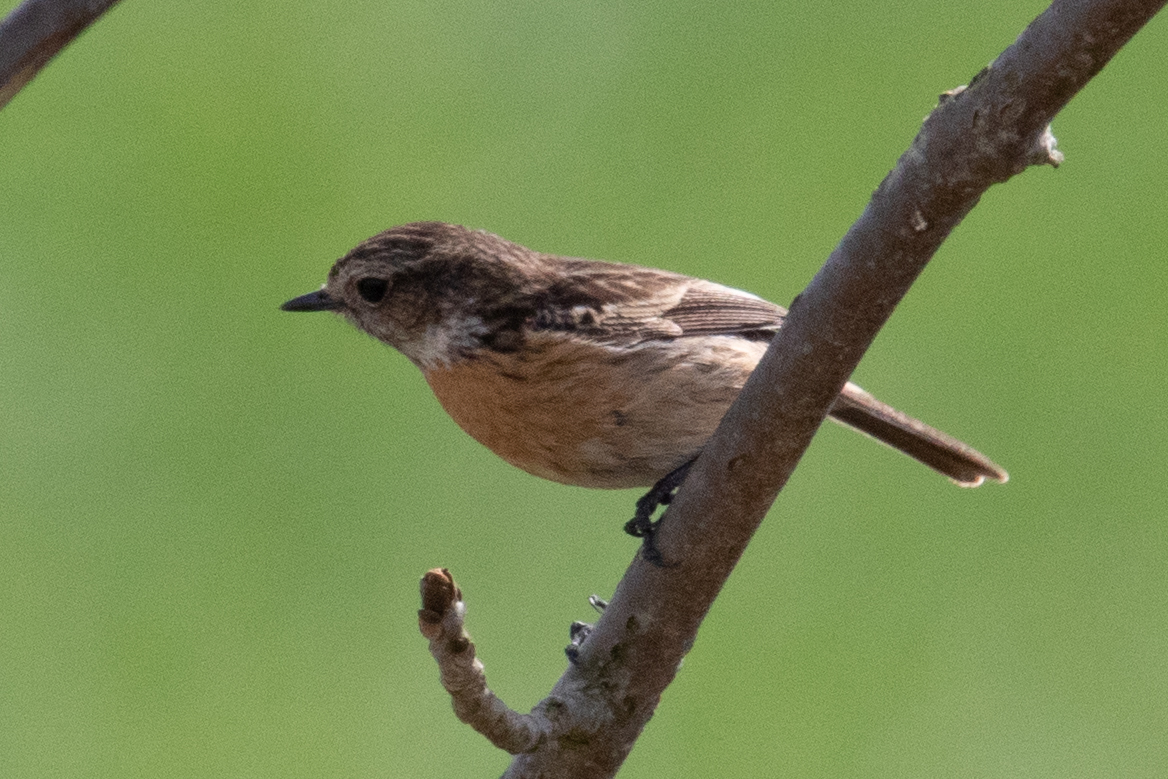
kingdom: Animalia
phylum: Chordata
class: Aves
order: Passeriformes
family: Muscicapidae
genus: Saxicola
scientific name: Saxicola rubicola
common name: European stonechat
